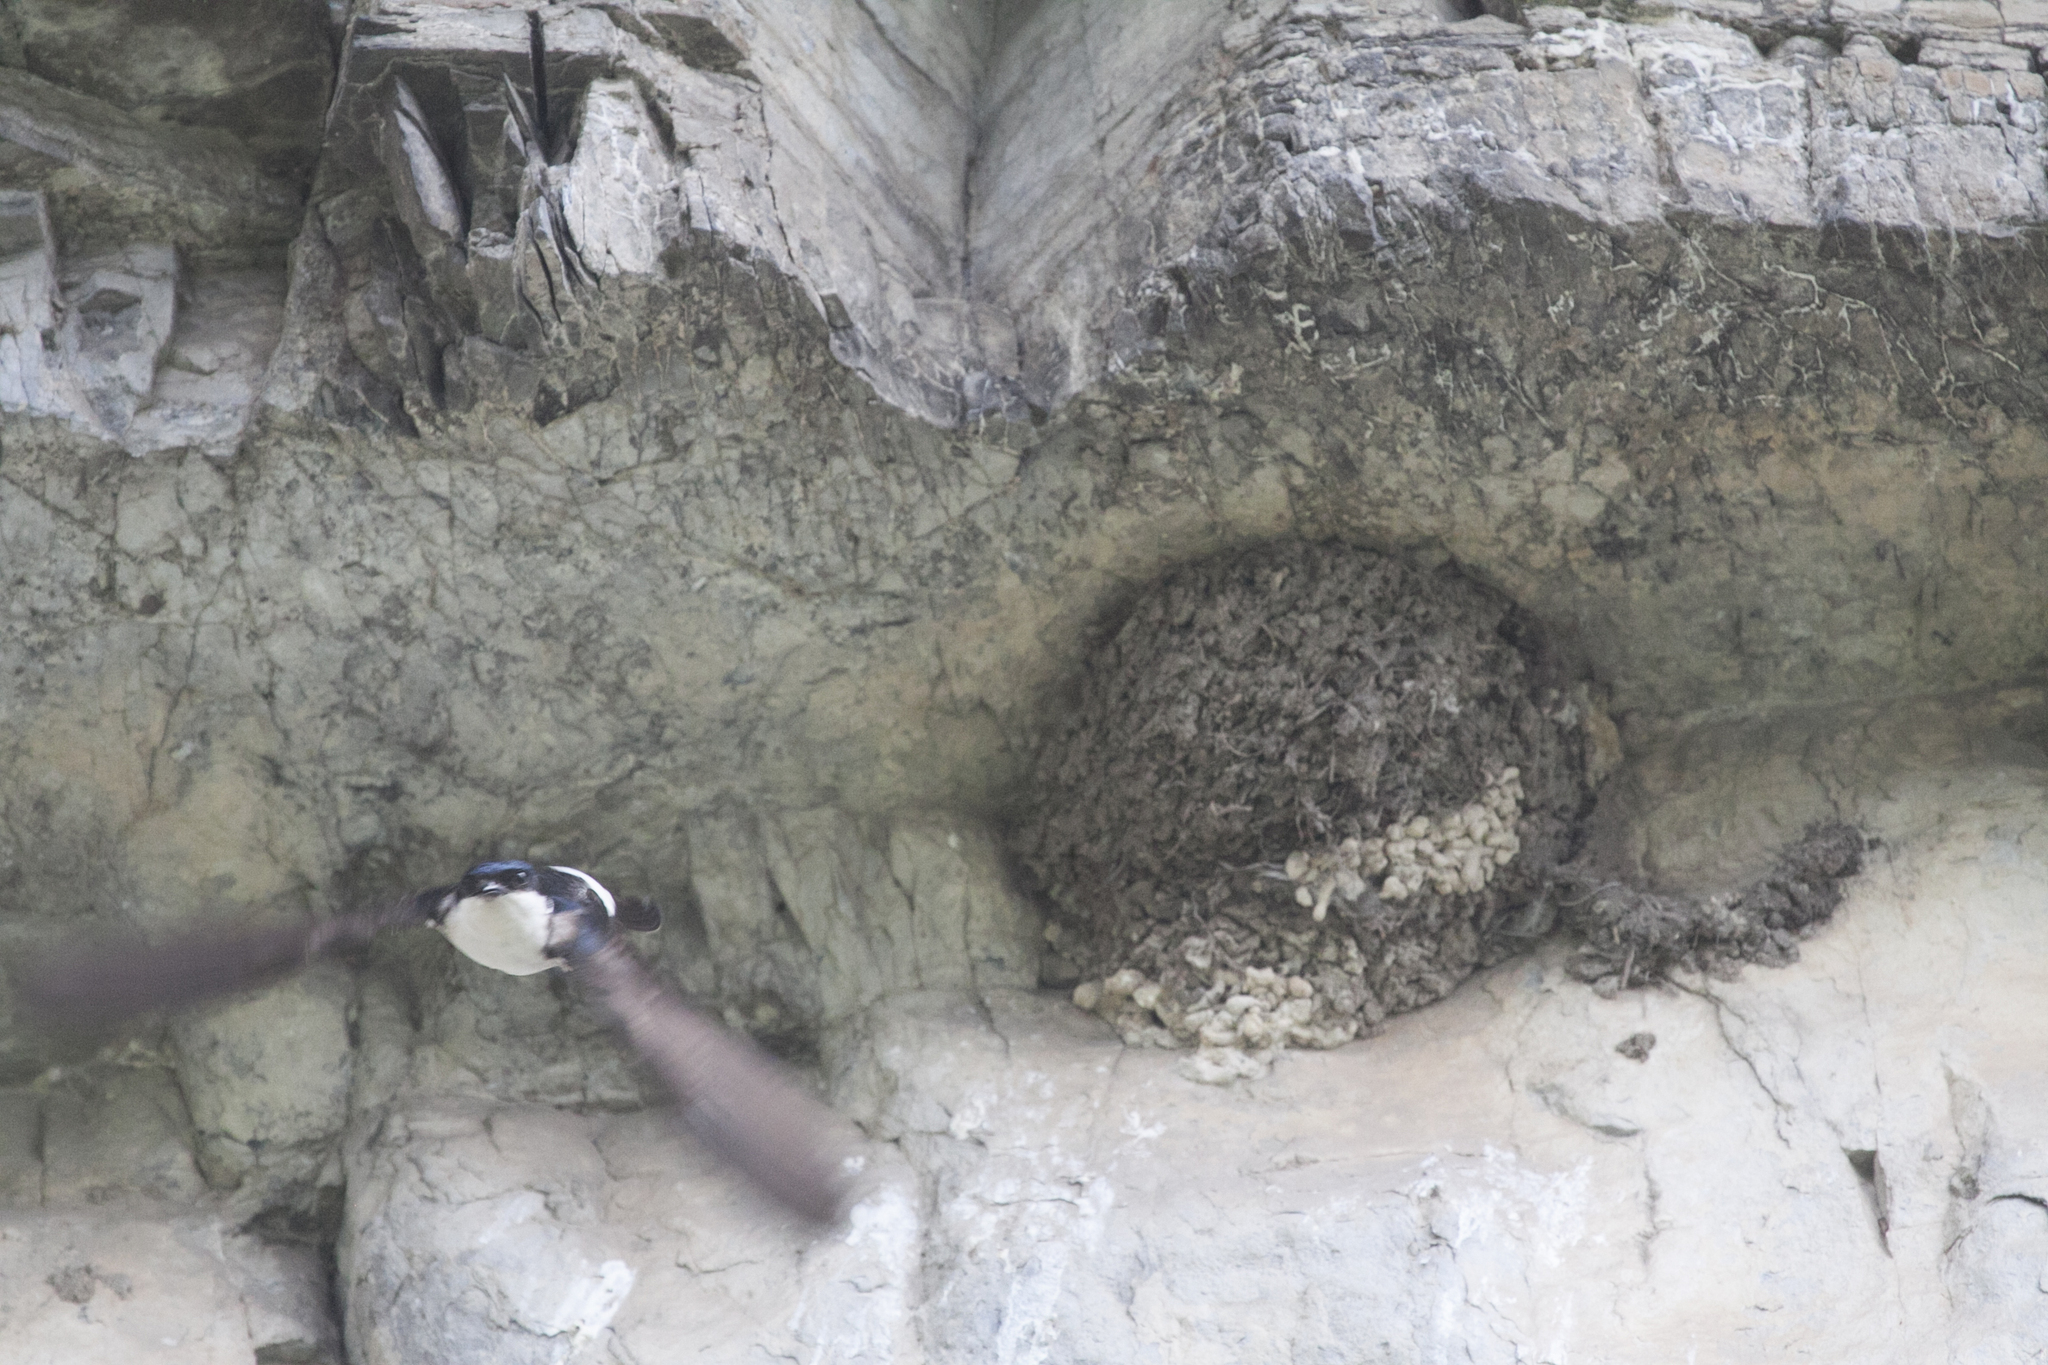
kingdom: Animalia
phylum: Chordata
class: Aves
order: Passeriformes
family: Hirundinidae
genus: Delichon
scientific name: Delichon urbicum
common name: Common house martin
